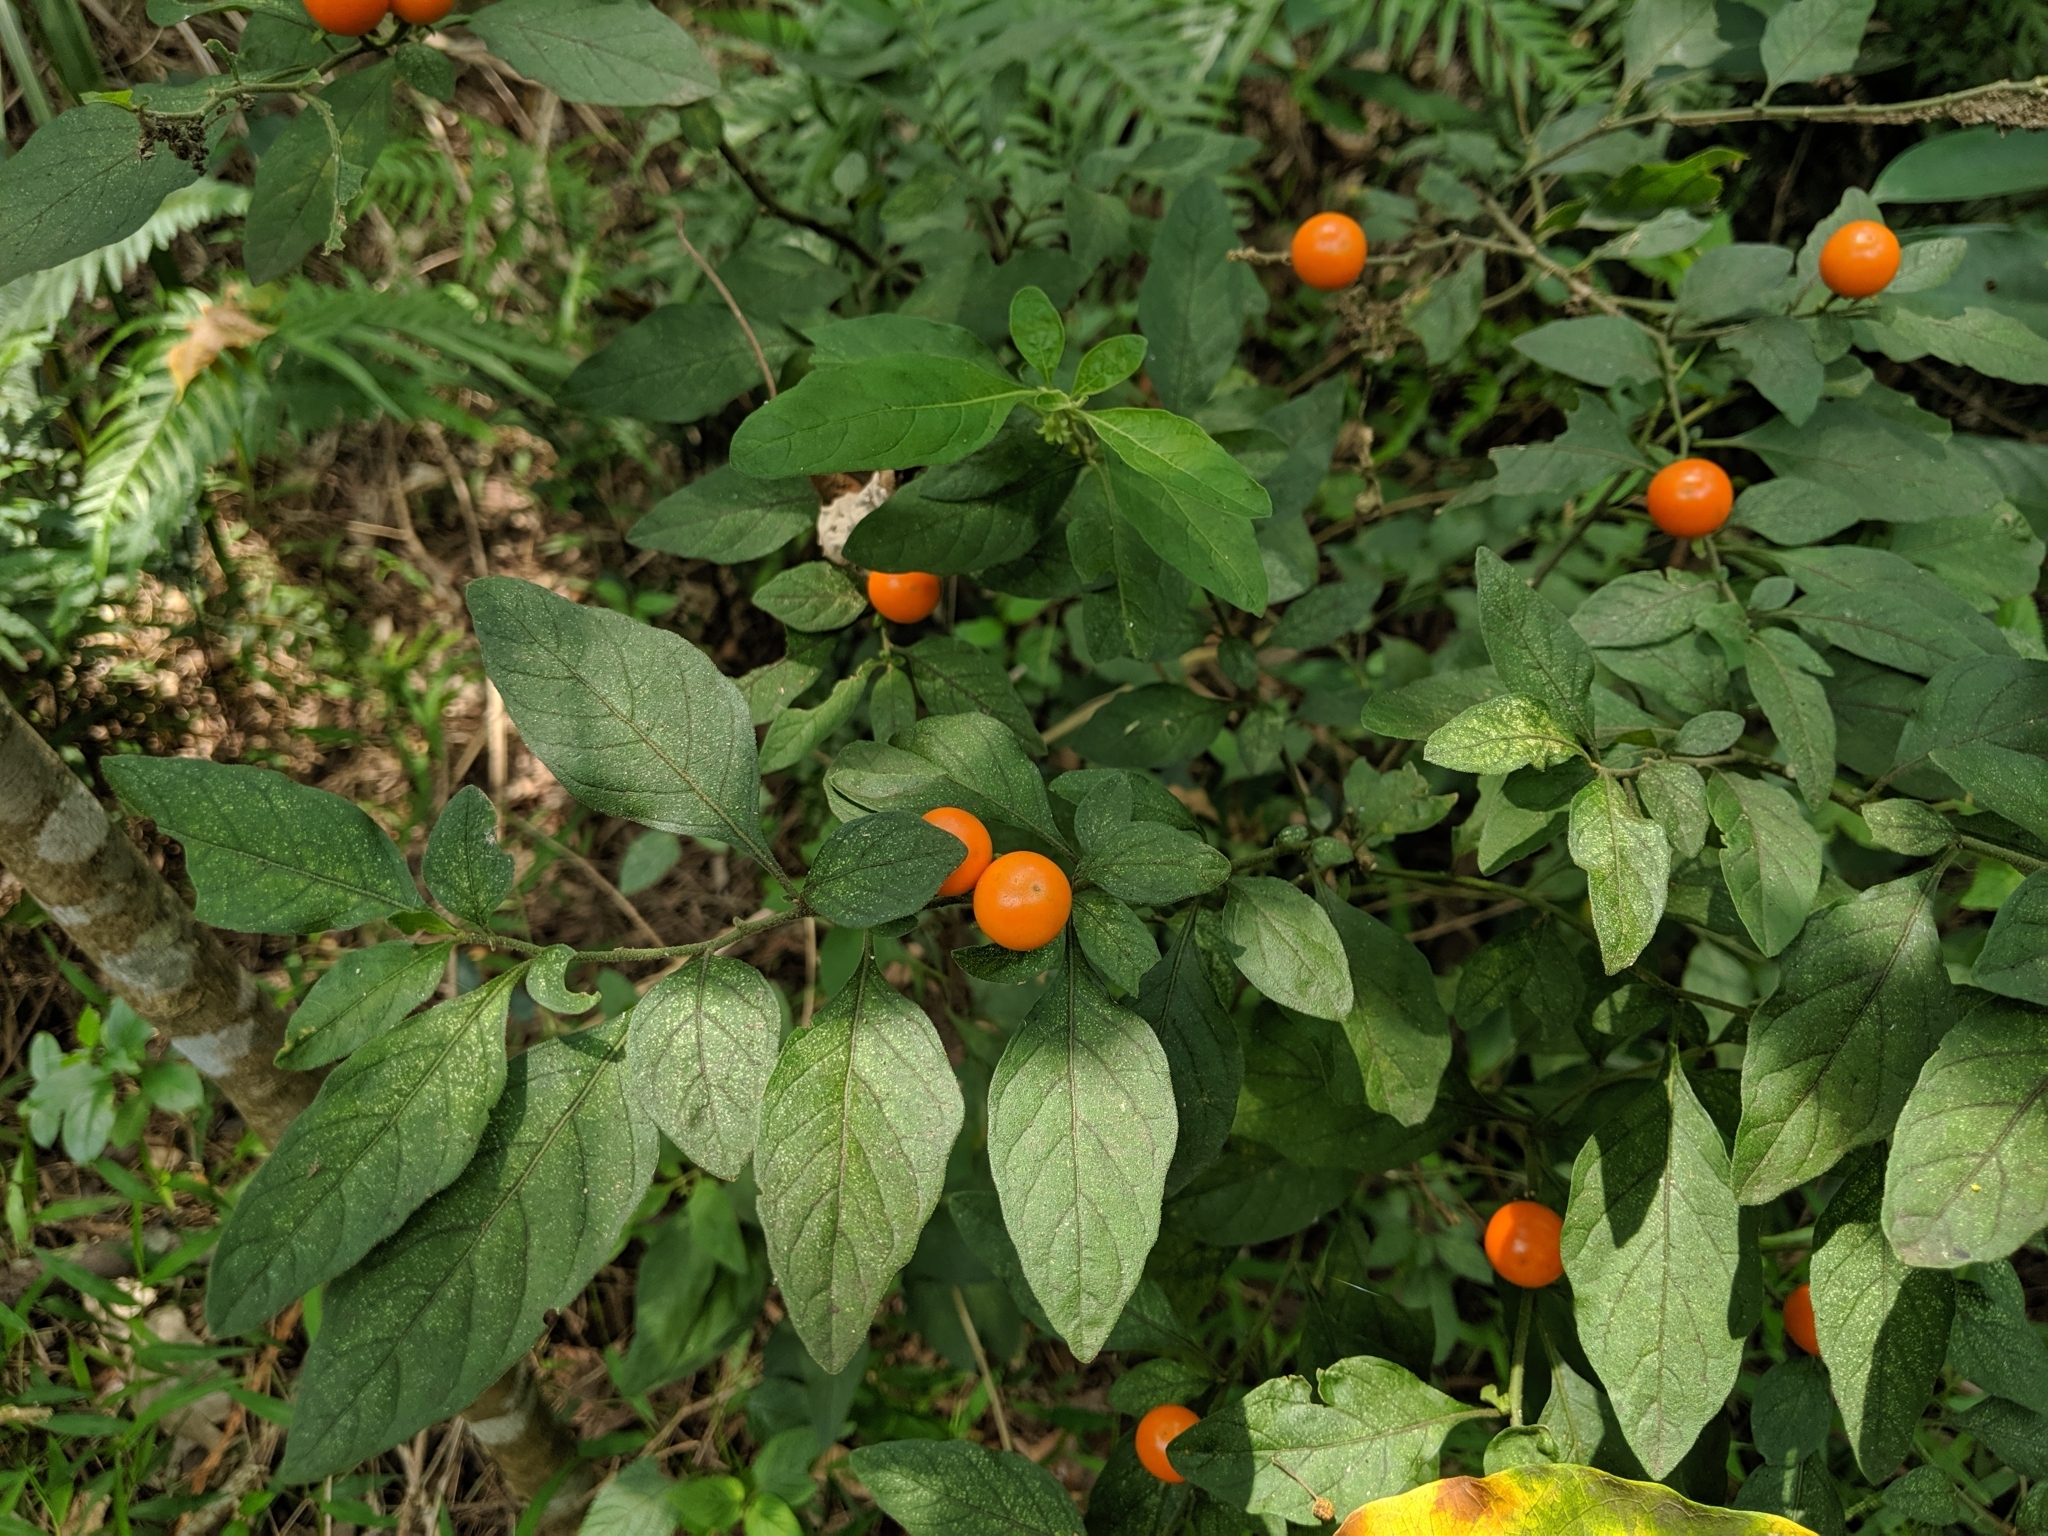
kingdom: Plantae
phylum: Tracheophyta
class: Magnoliopsida
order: Solanales
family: Solanaceae
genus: Solanum
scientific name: Solanum pseudocapsicum
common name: Jerusalem cherry
